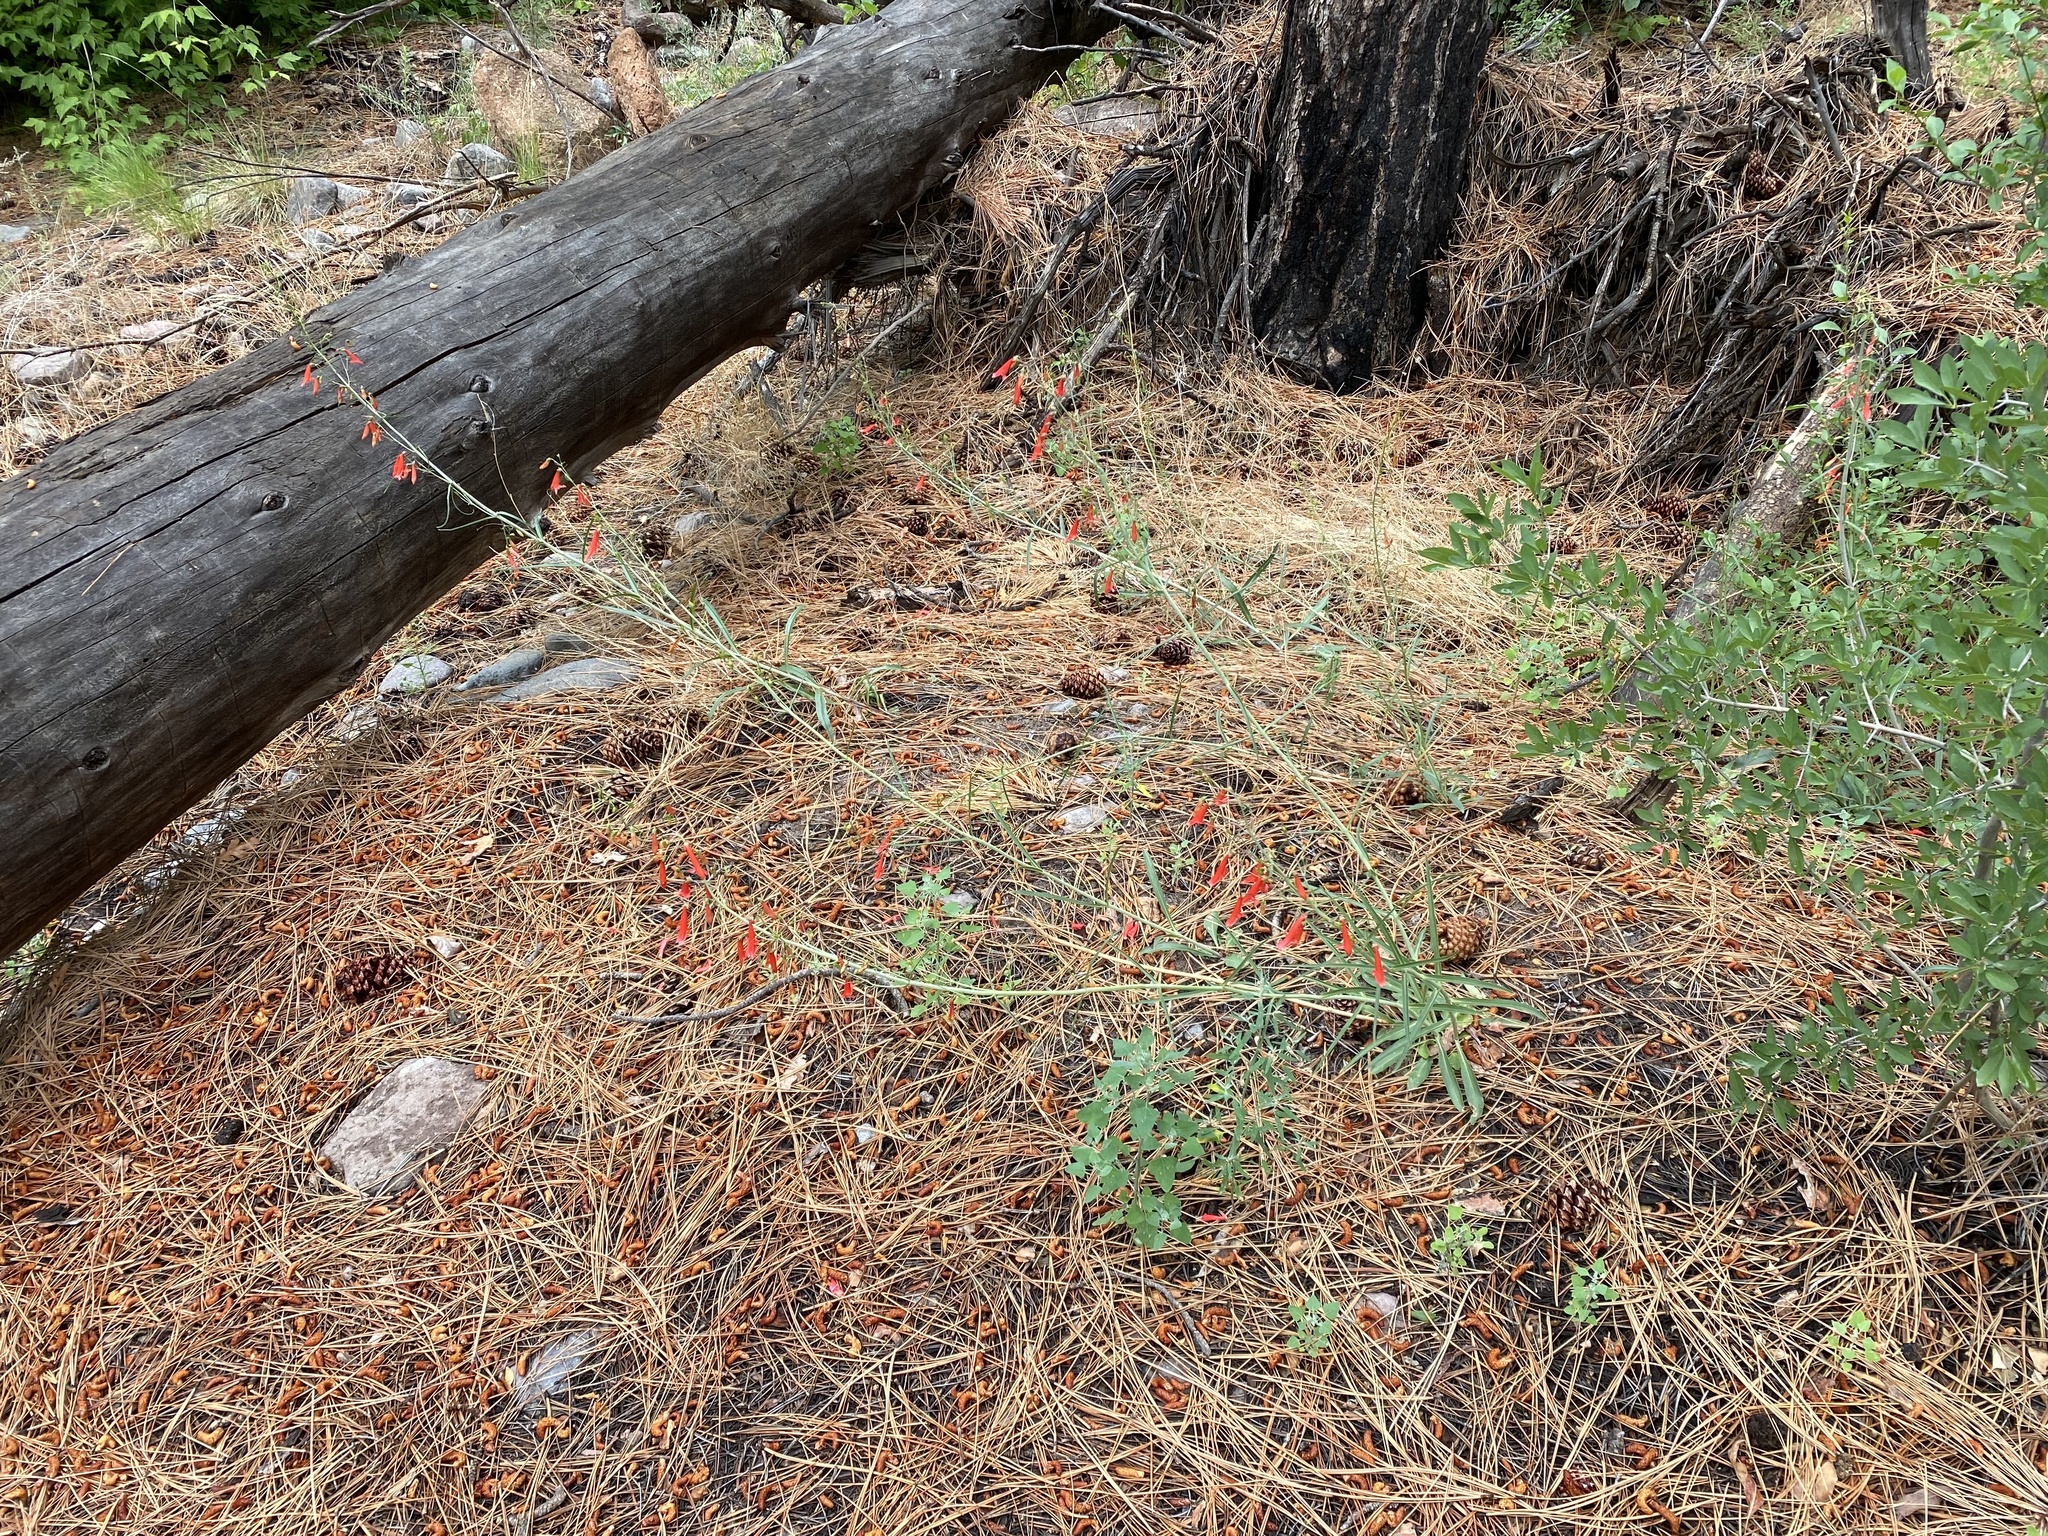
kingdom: Plantae
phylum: Tracheophyta
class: Magnoliopsida
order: Lamiales
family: Plantaginaceae
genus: Penstemon
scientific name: Penstemon barbatus
